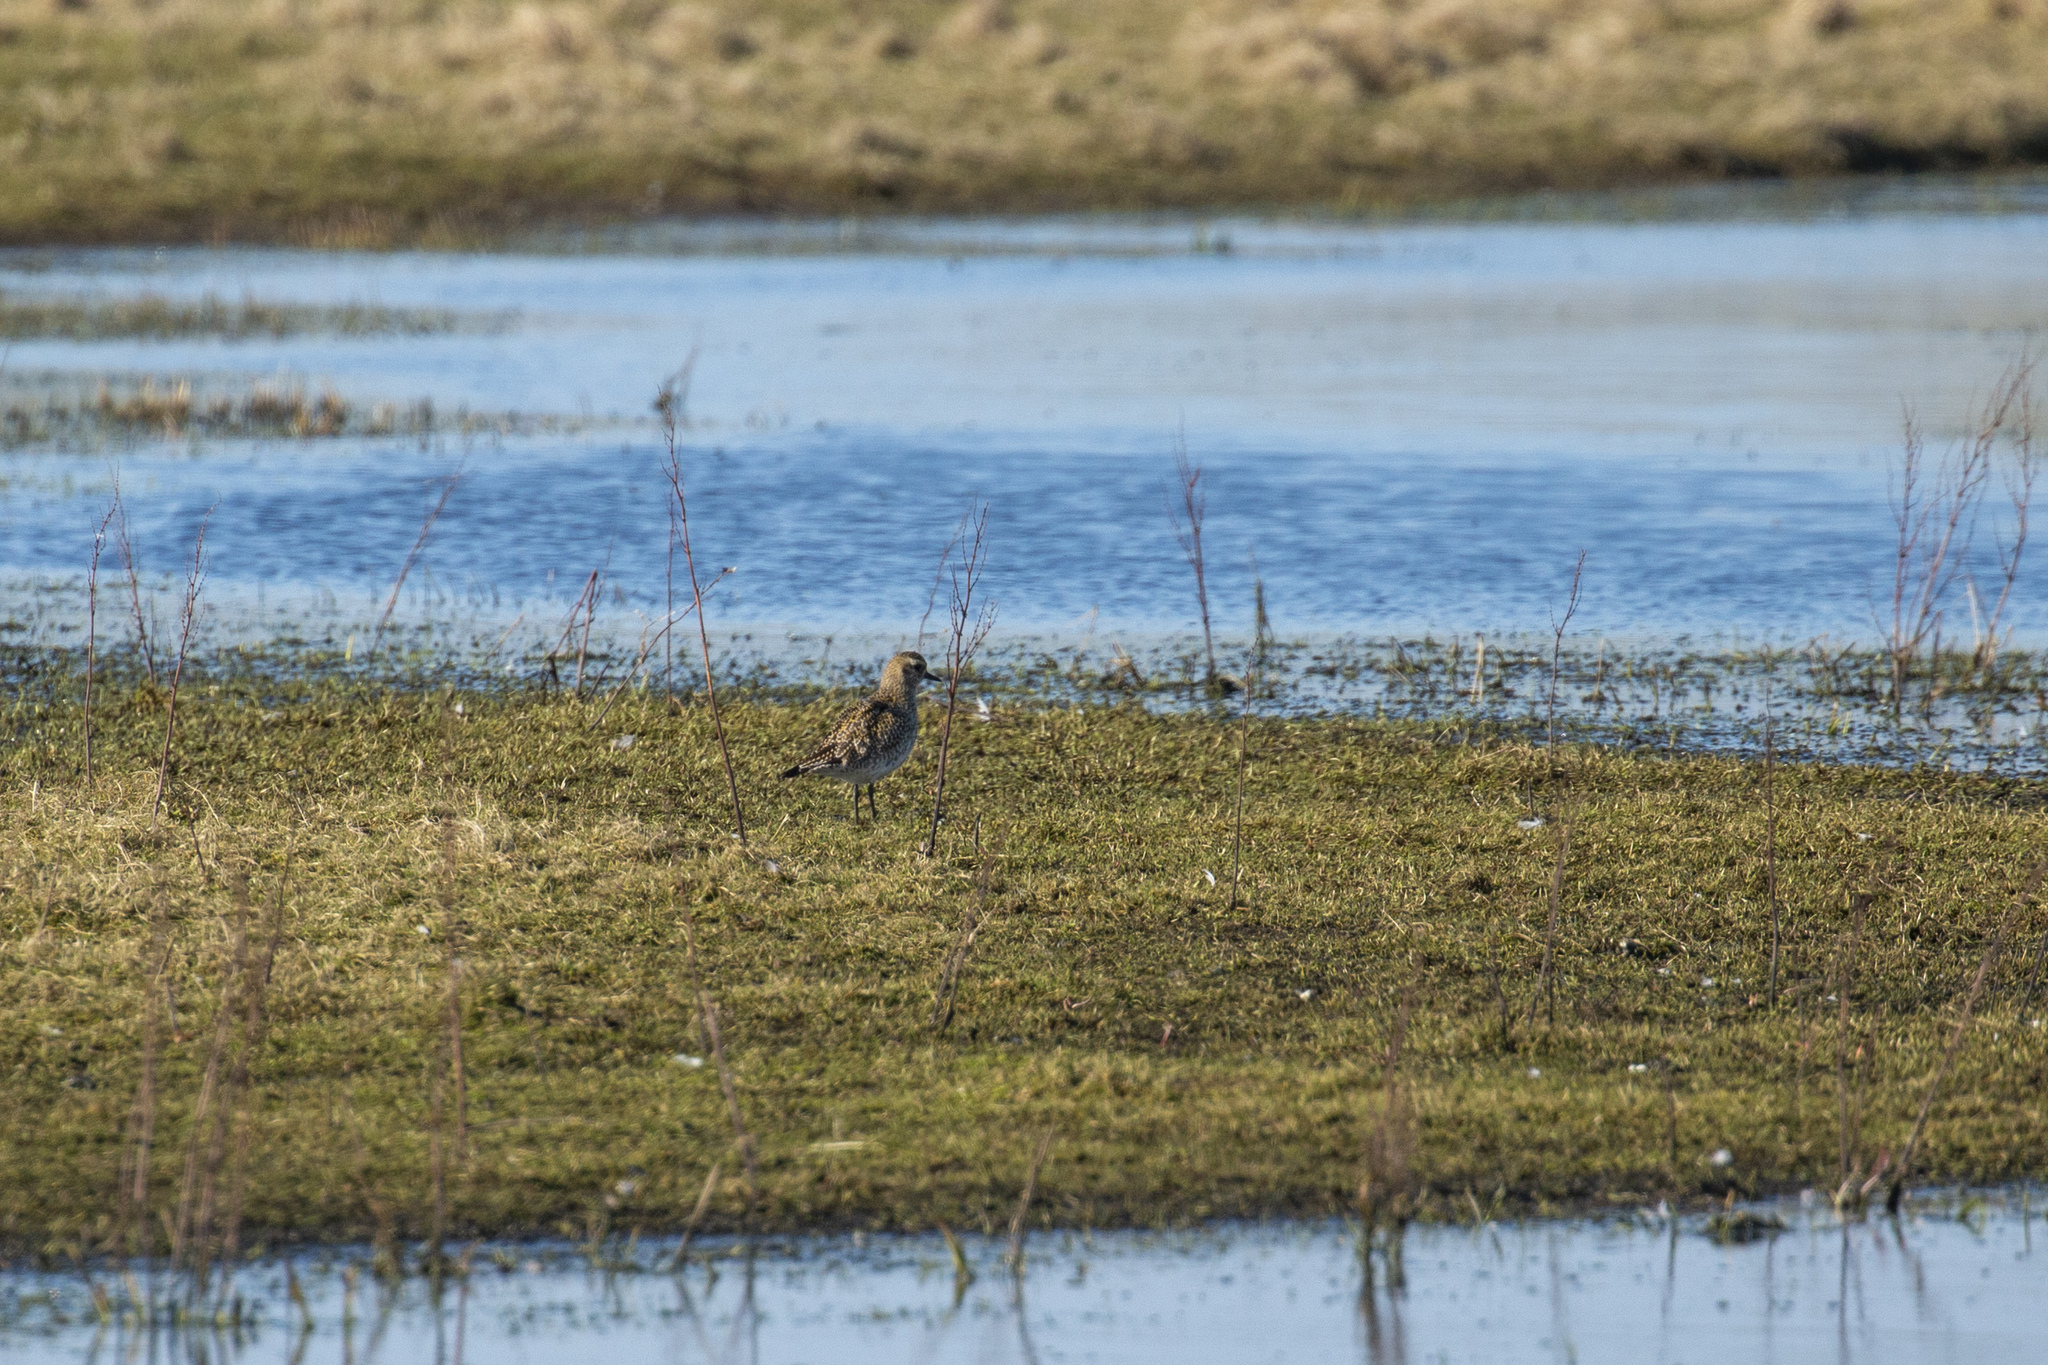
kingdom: Animalia
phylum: Chordata
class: Aves
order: Charadriiformes
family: Charadriidae
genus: Pluvialis
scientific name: Pluvialis apricaria
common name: European golden plover
